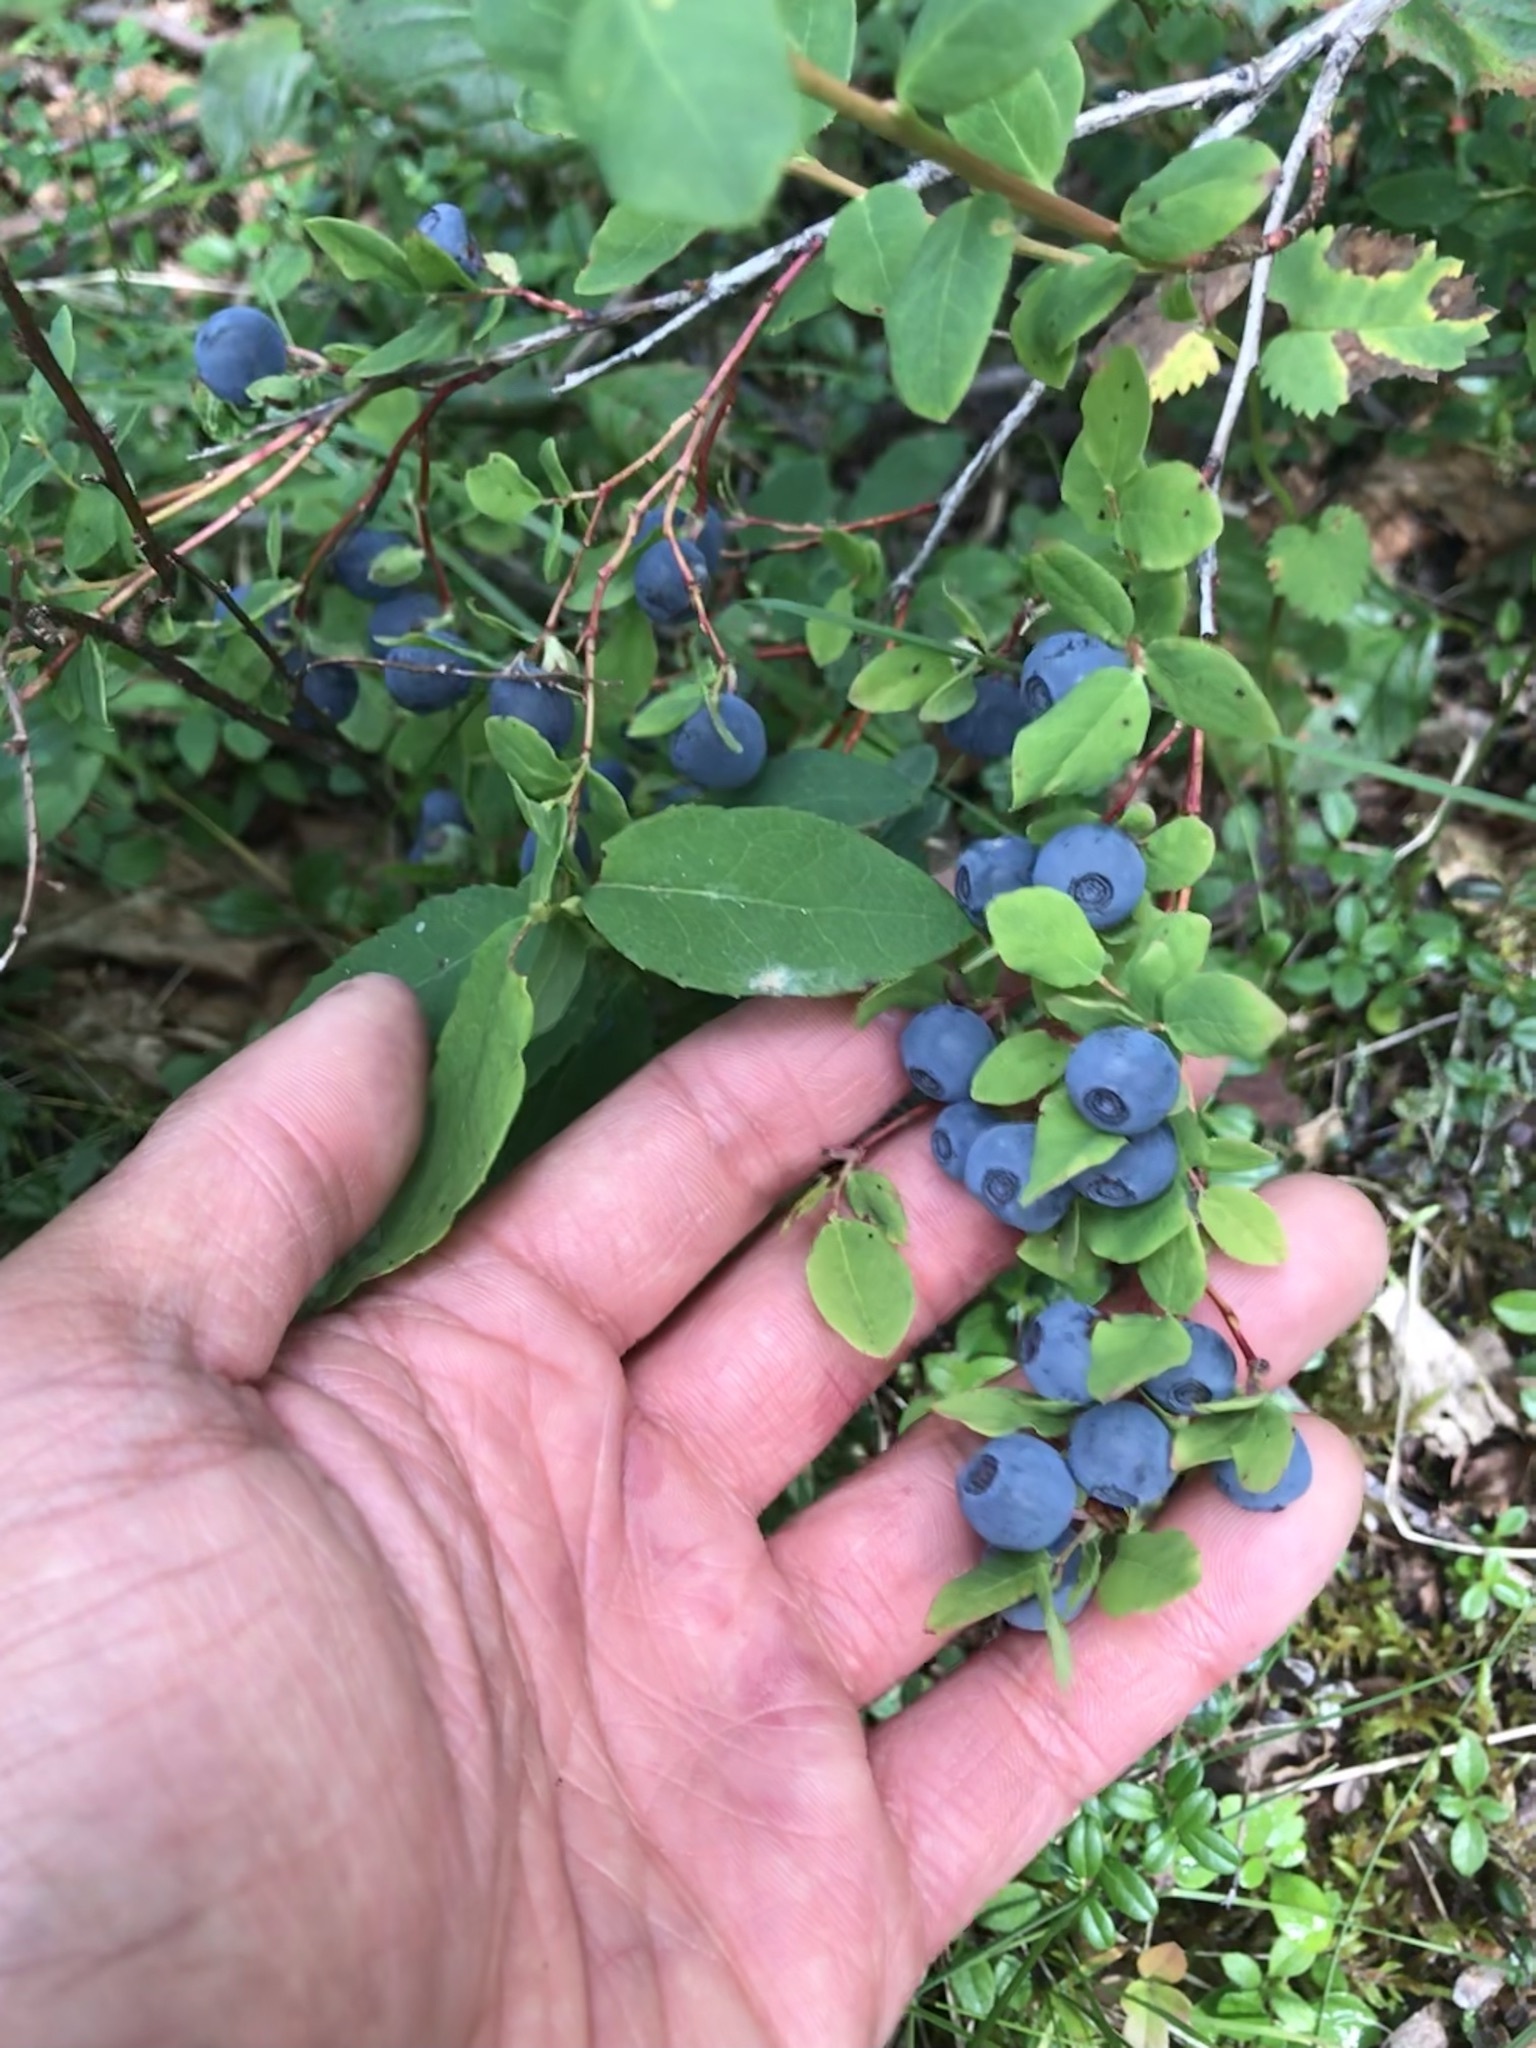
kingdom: Plantae
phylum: Tracheophyta
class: Magnoliopsida
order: Ericales
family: Ericaceae
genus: Vaccinium
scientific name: Vaccinium ovalifolium
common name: Early blueberry
